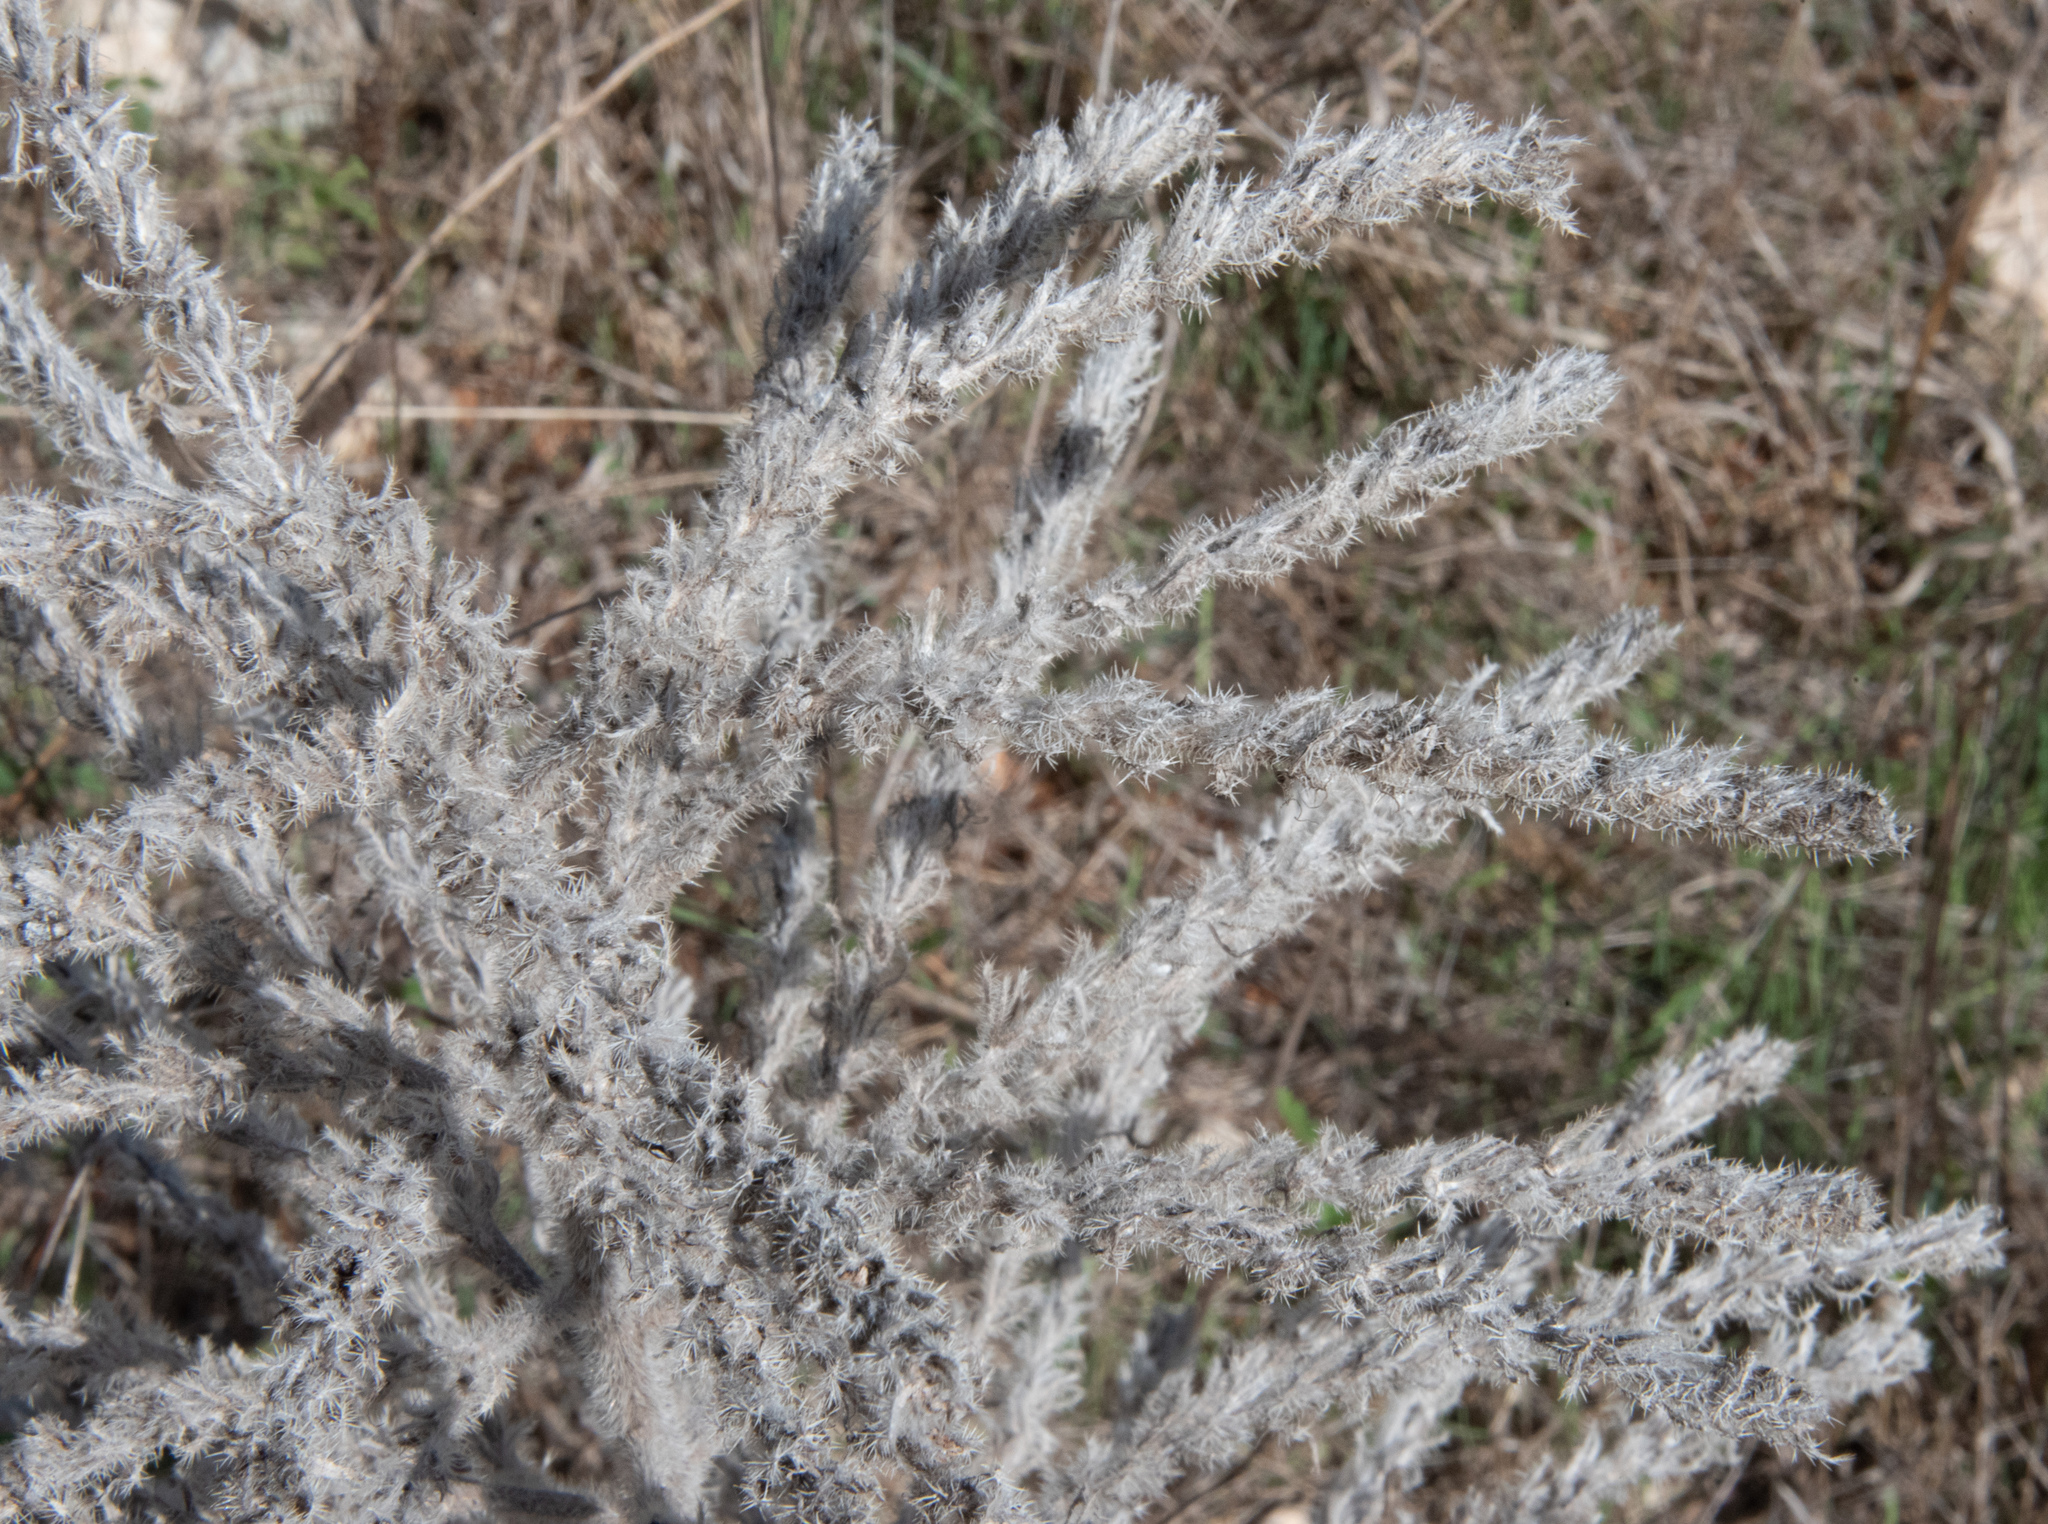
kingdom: Plantae
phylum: Tracheophyta
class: Magnoliopsida
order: Boraginales
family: Boraginaceae
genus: Echium
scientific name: Echium
